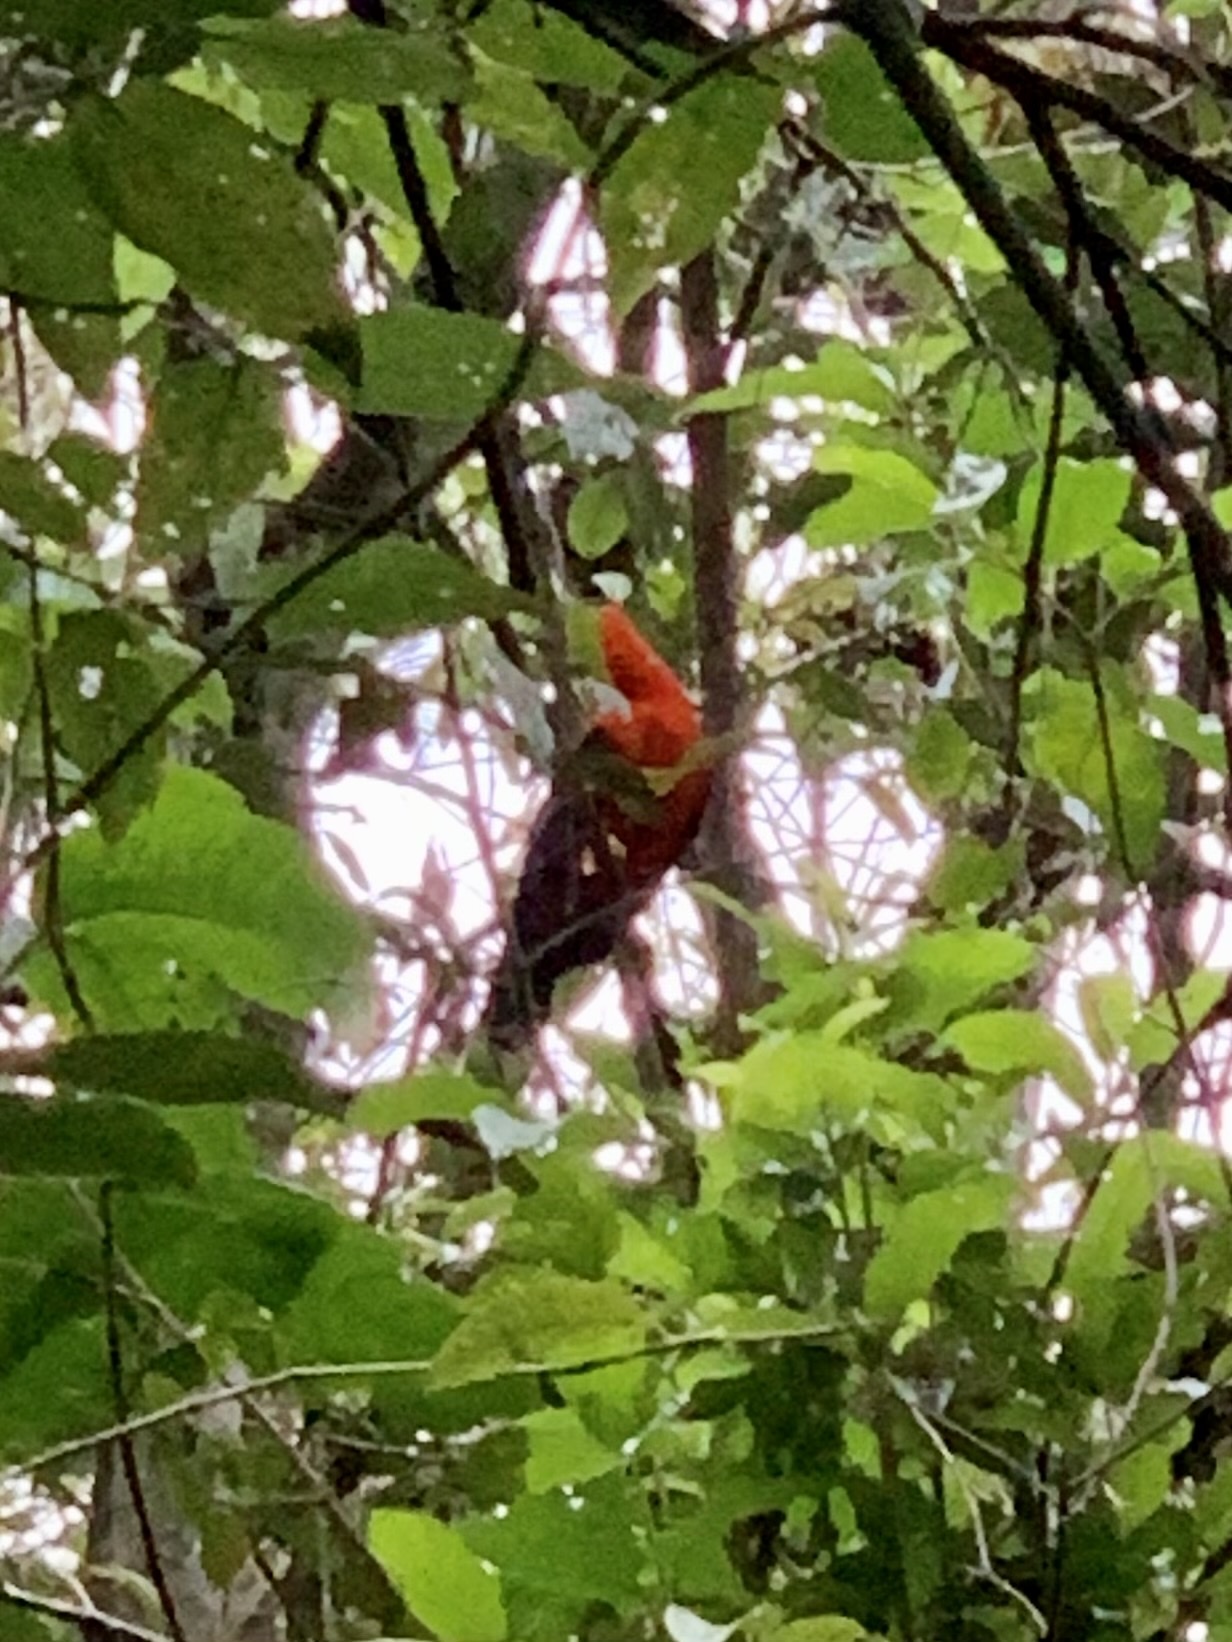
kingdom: Animalia
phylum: Chordata
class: Aves
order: Passeriformes
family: Cotingidae
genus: Rupicola
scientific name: Rupicola peruvianus
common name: Andean cock-of-the-rock
